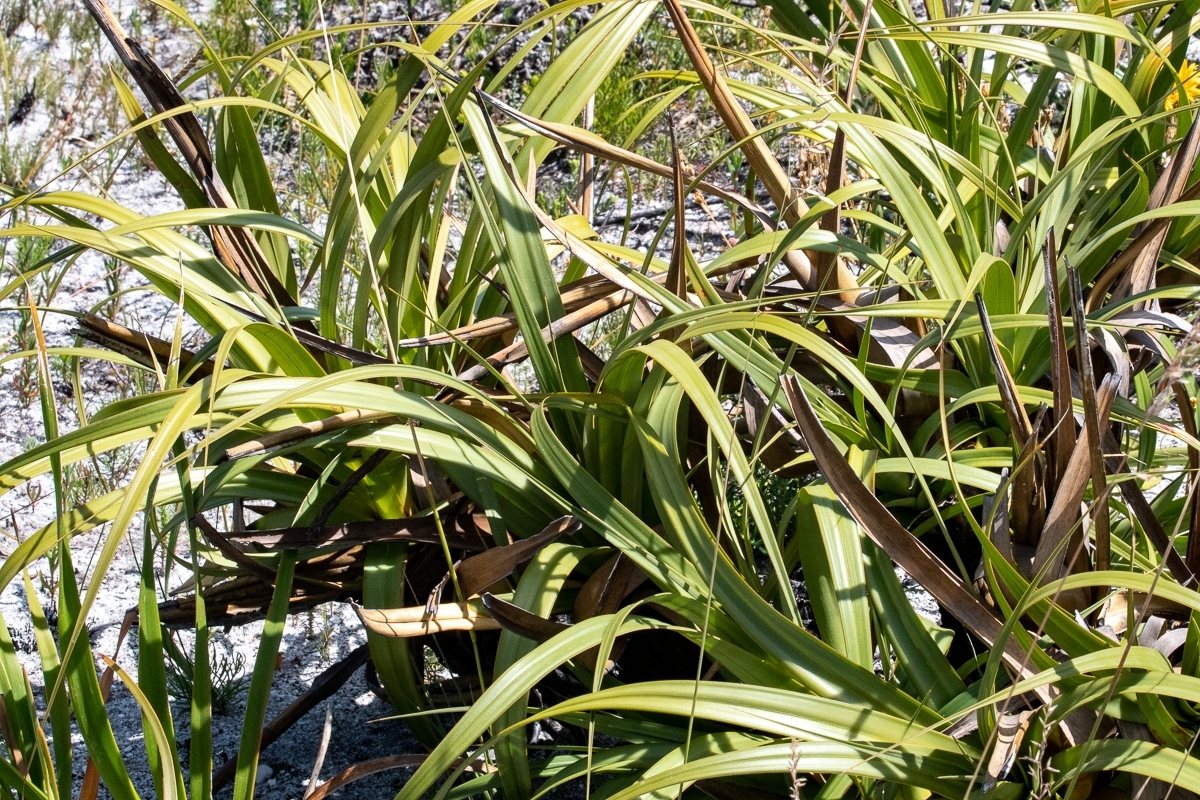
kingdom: Plantae
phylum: Tracheophyta
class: Liliopsida
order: Poales
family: Cyperaceae
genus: Tetraria
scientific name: Tetraria thermalis
